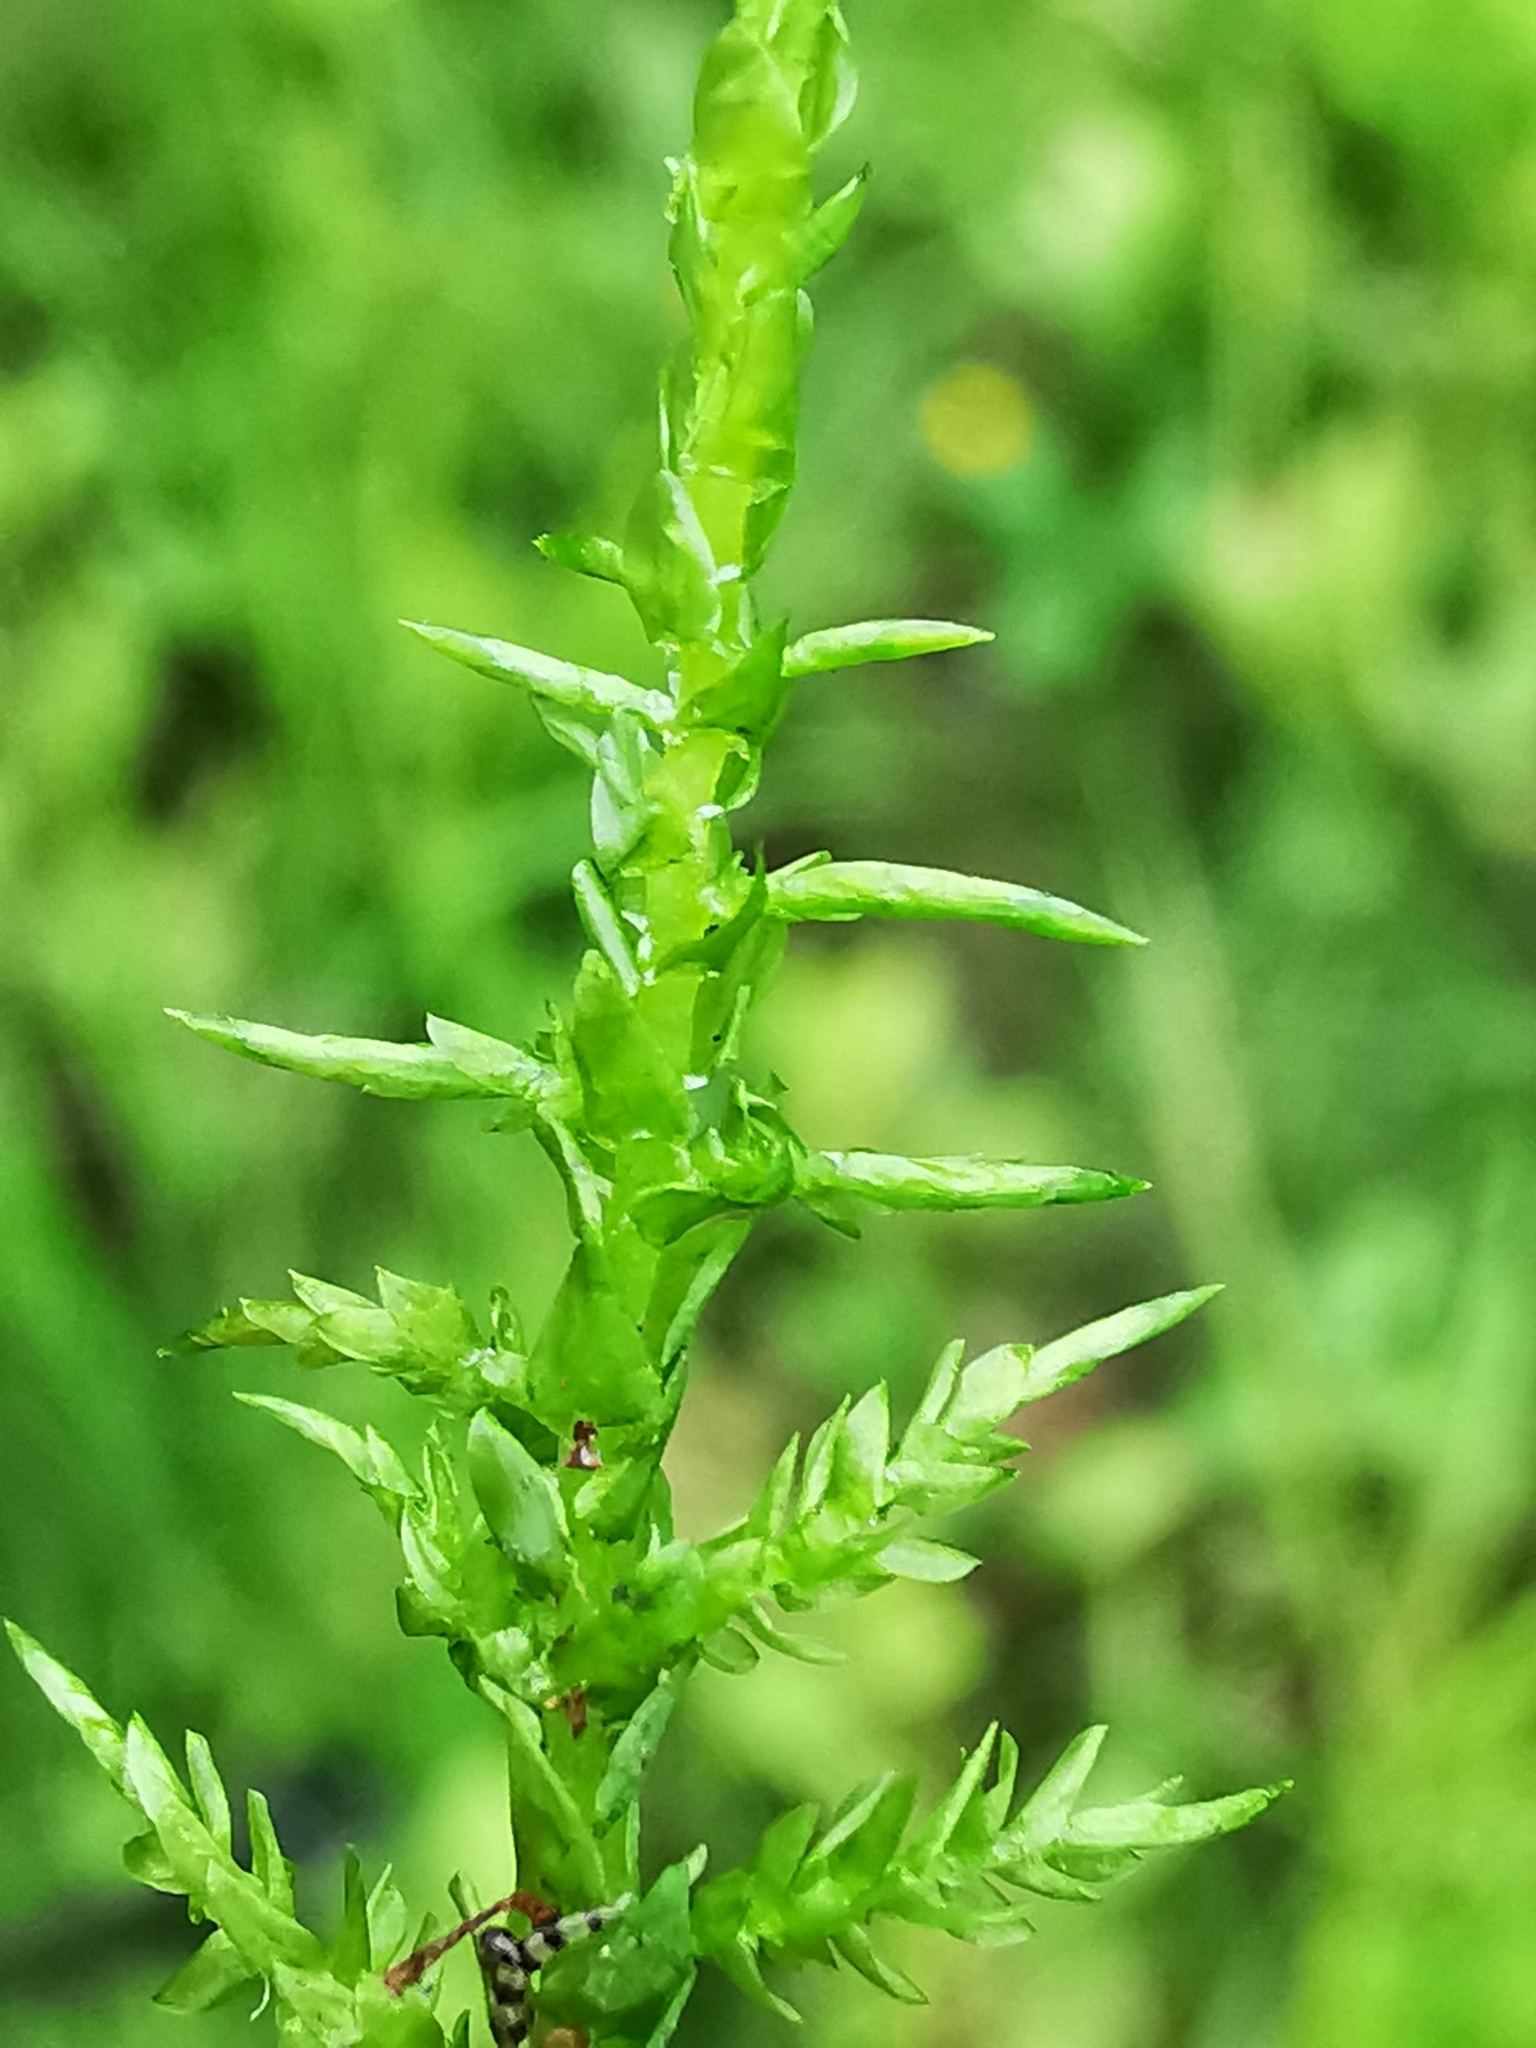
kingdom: Plantae
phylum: Bryophyta
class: Bryopsida
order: Hypnales
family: Pylaisiaceae
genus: Calliergonella
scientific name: Calliergonella cuspidata
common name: Common large wetland moss
